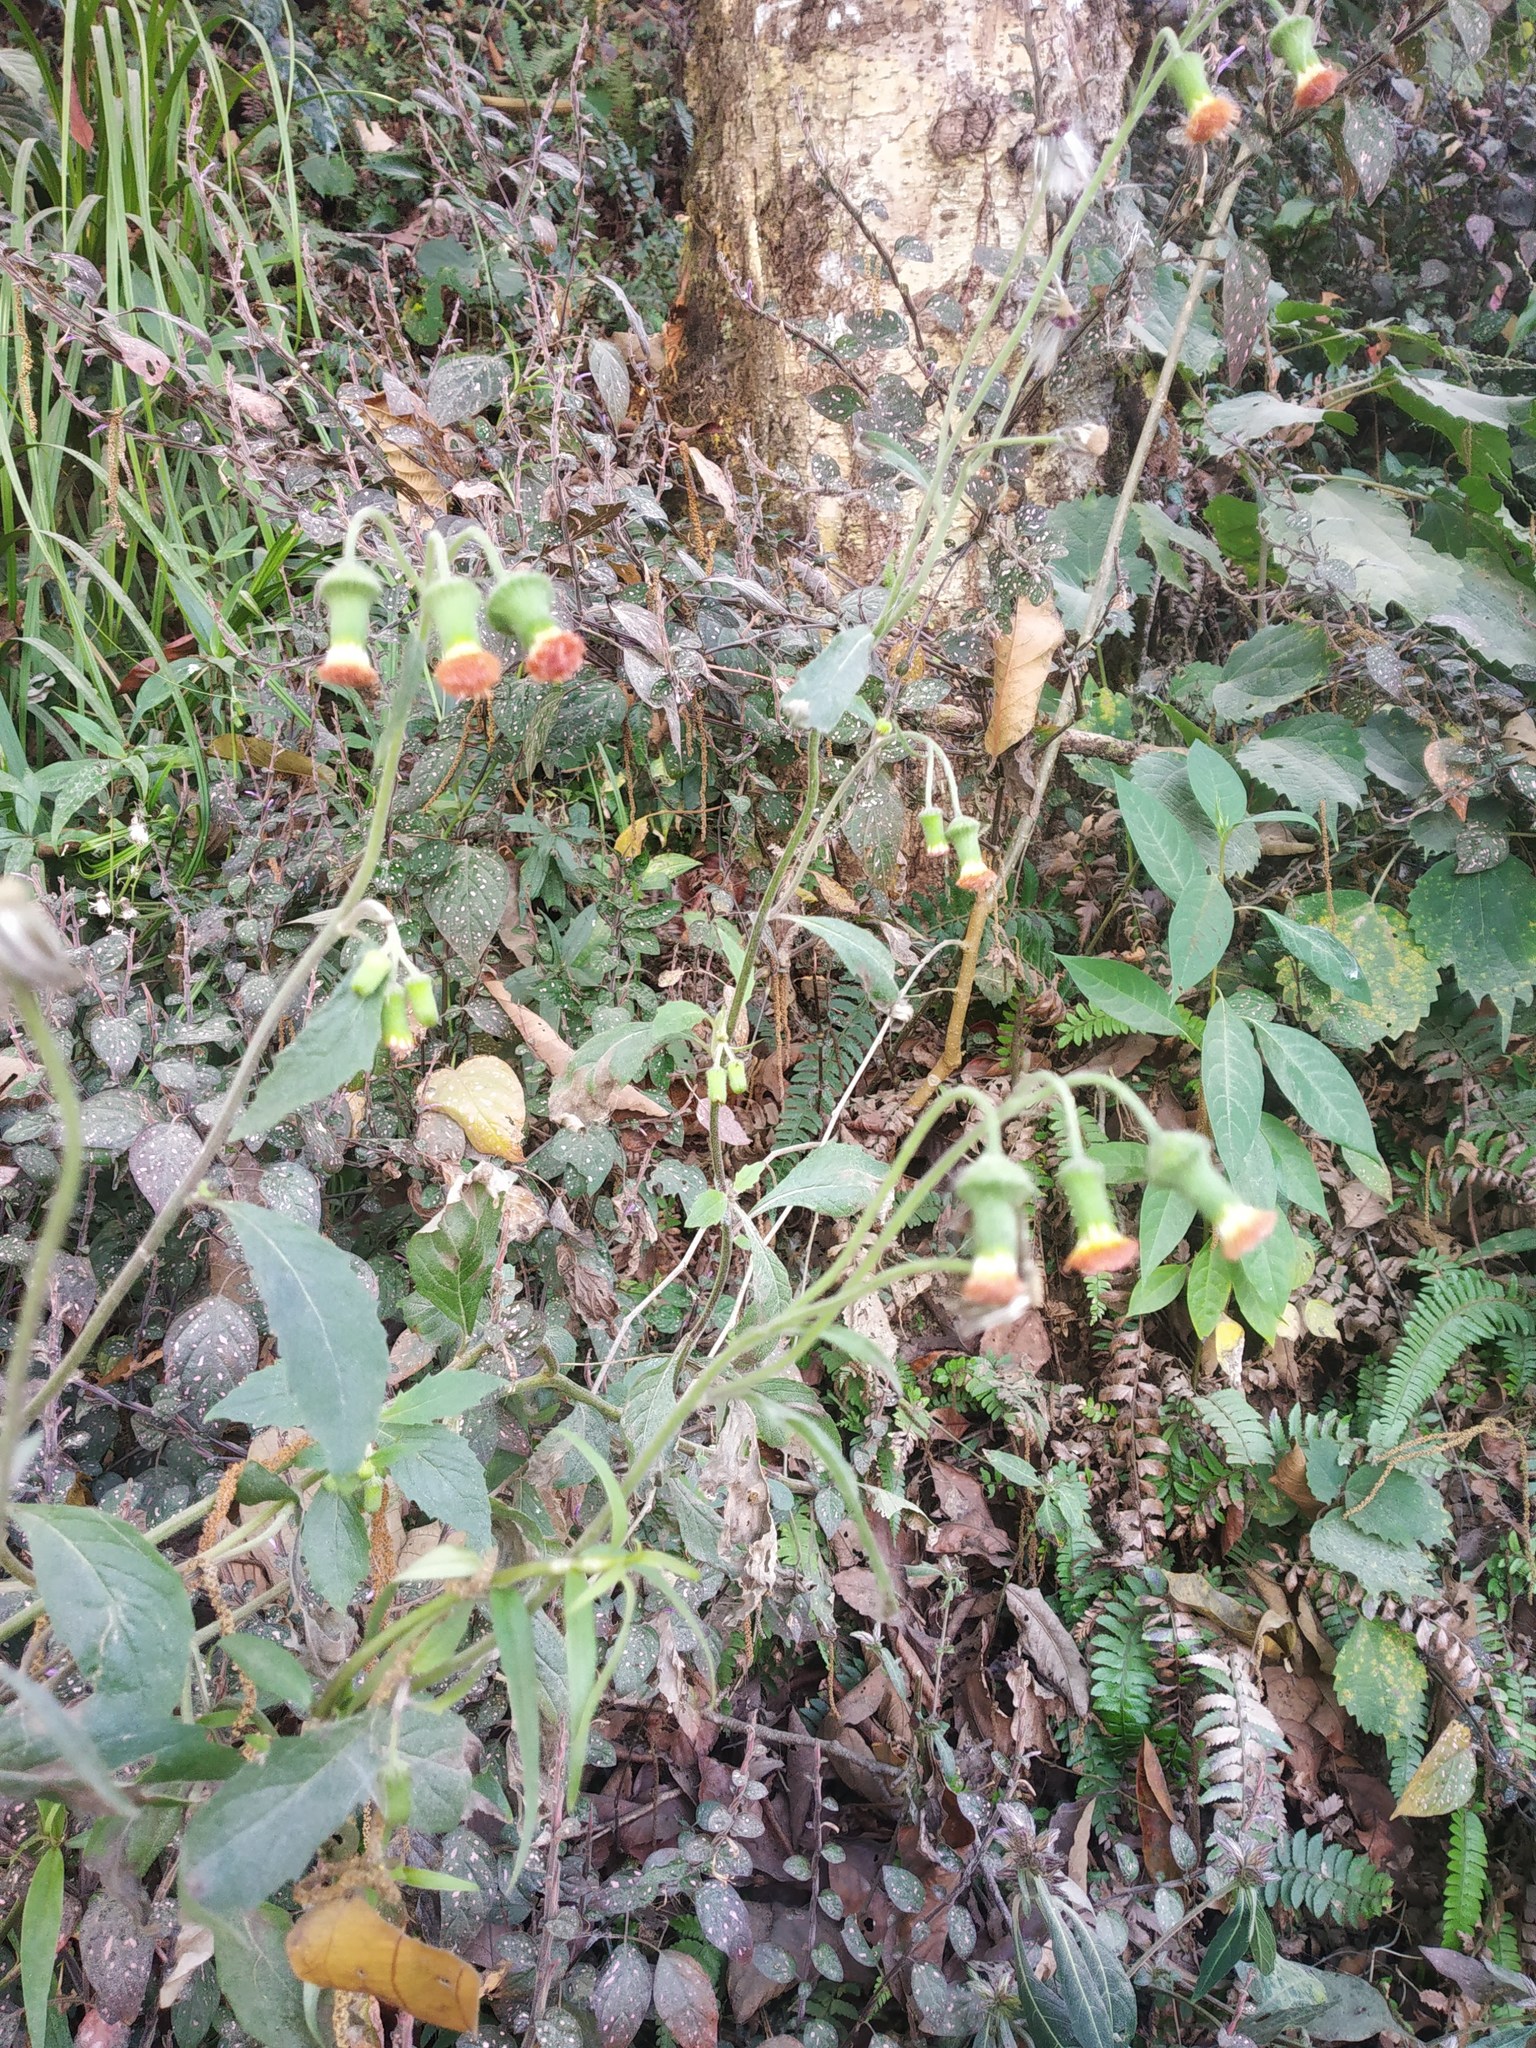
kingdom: Plantae
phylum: Tracheophyta
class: Magnoliopsida
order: Asterales
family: Asteraceae
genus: Crassocephalum
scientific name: Crassocephalum crepidioides
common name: Redflower ragleaf
